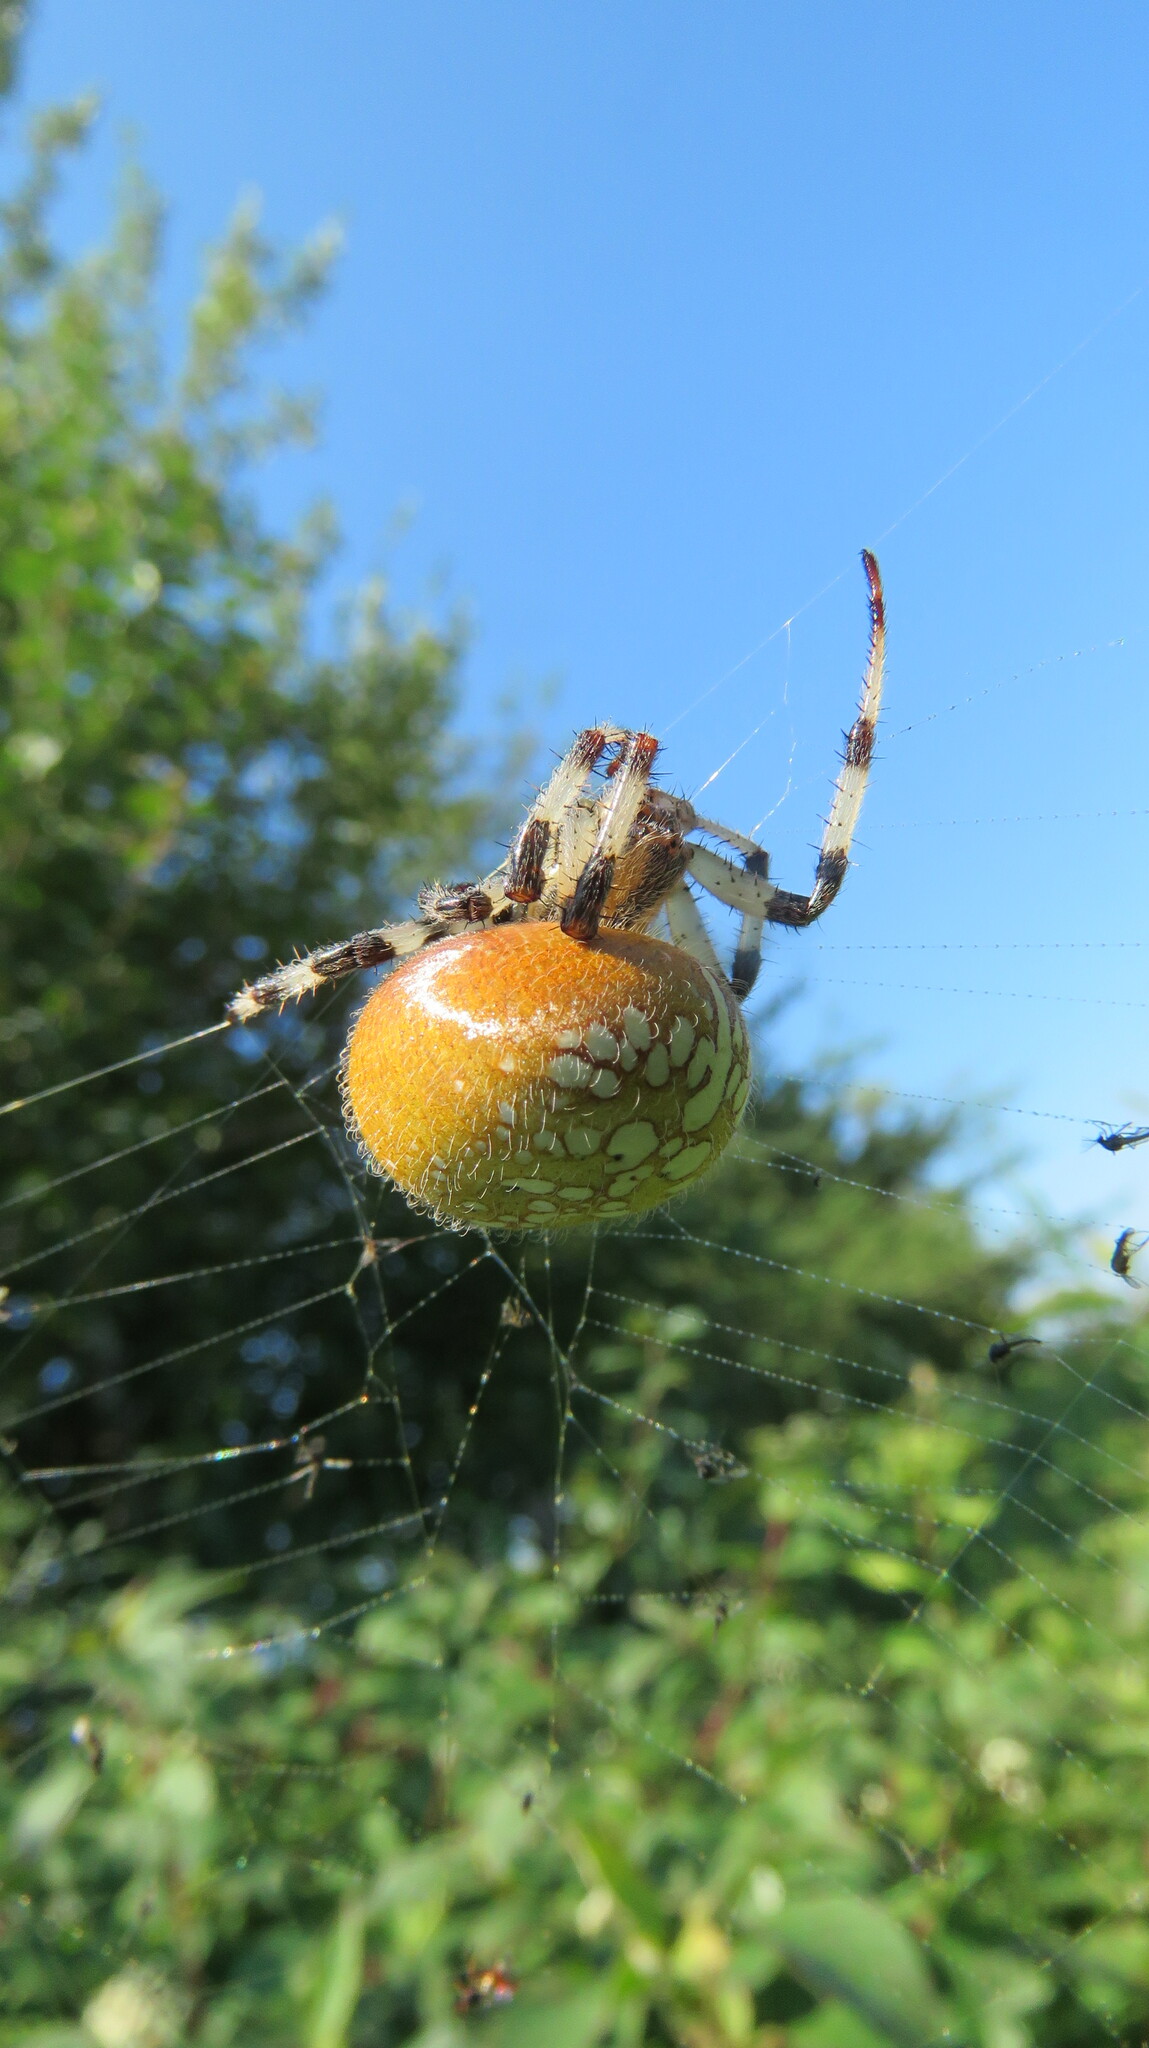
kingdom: Animalia
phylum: Arthropoda
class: Arachnida
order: Araneae
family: Araneidae
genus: Araneus
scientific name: Araneus trifolium
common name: Shamrock orbweaver
